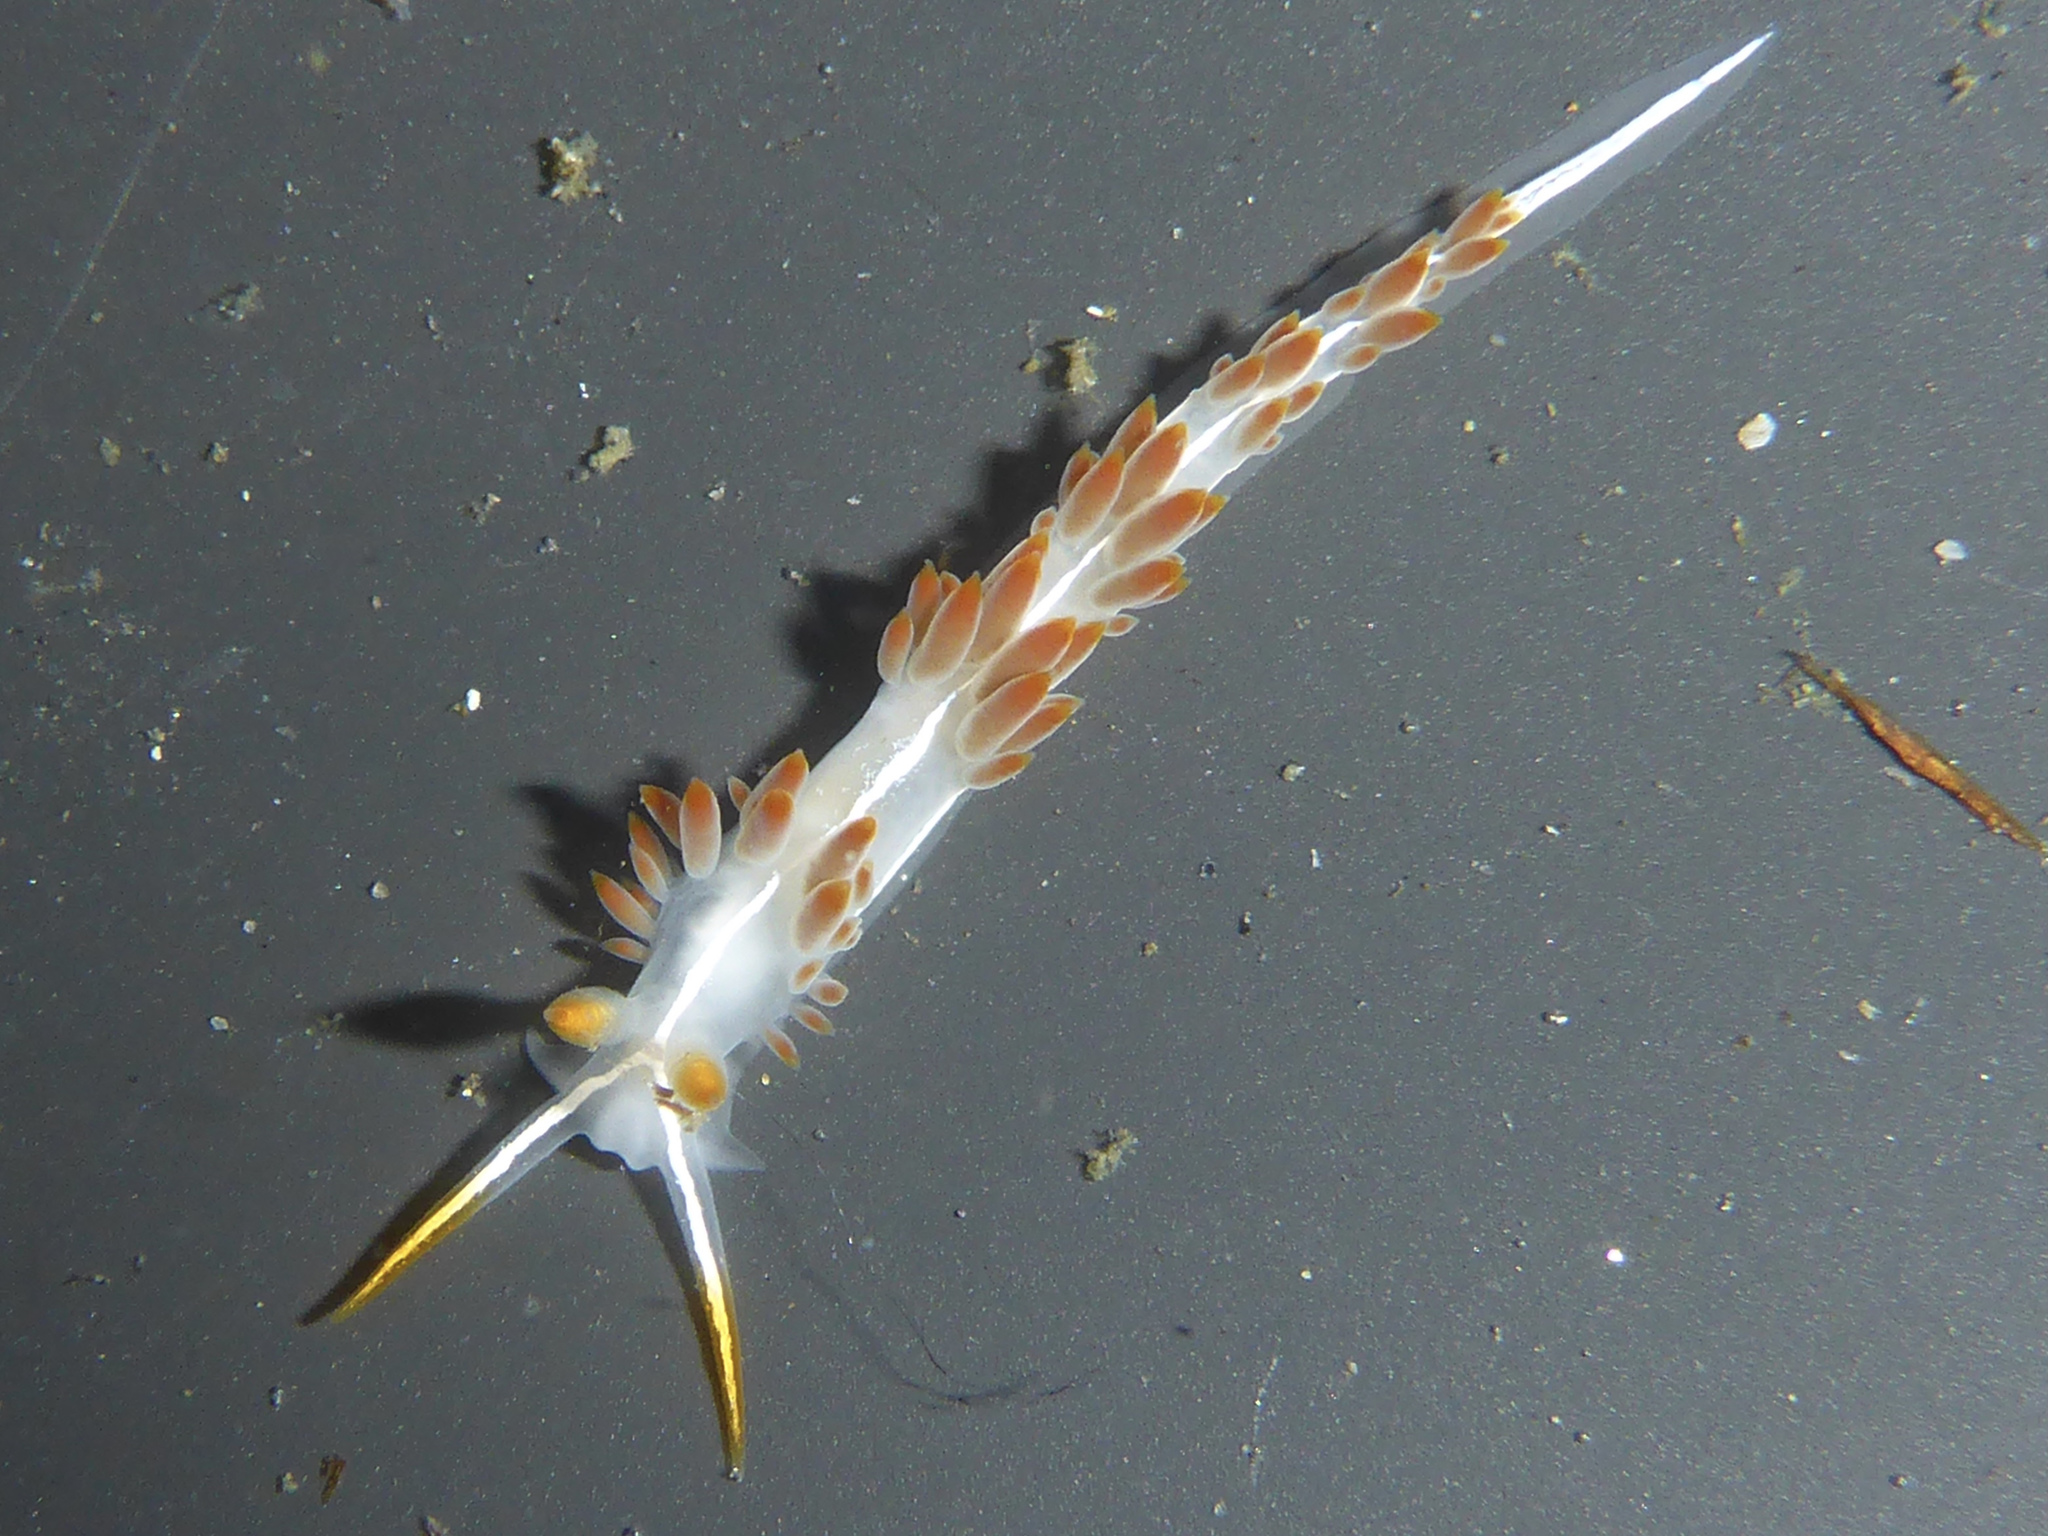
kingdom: Animalia
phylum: Mollusca
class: Gastropoda
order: Nudibranchia
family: Coryphellidae
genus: Coryphella
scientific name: Coryphella trilineata
